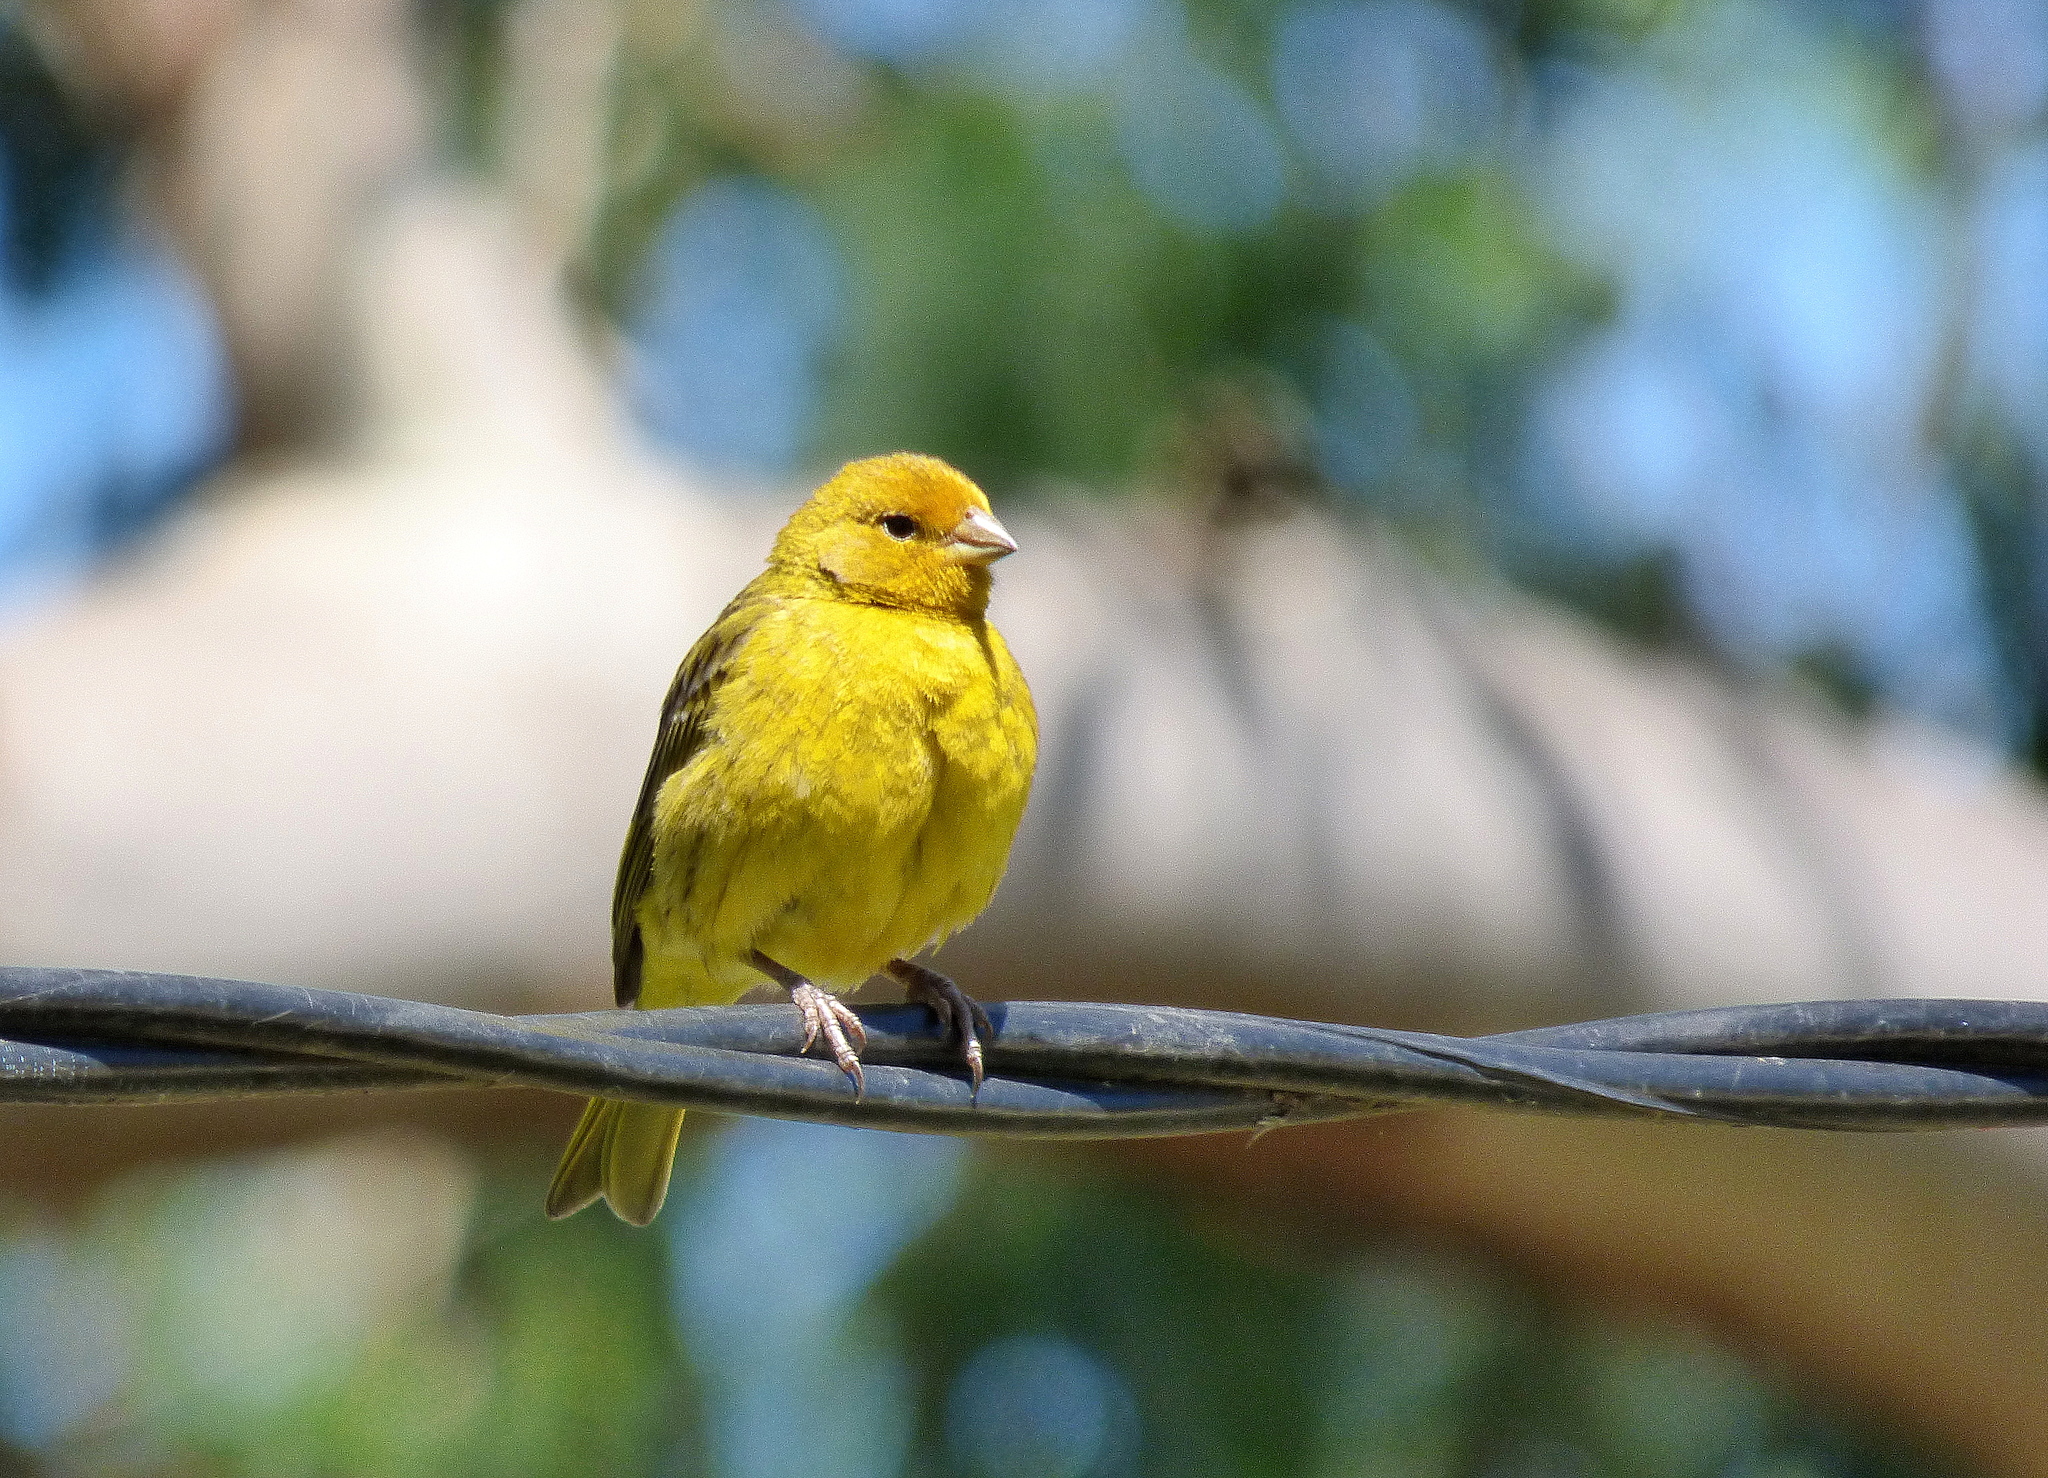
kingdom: Animalia
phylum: Chordata
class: Aves
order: Passeriformes
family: Thraupidae
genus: Sicalis
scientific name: Sicalis flaveola
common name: Saffron finch
